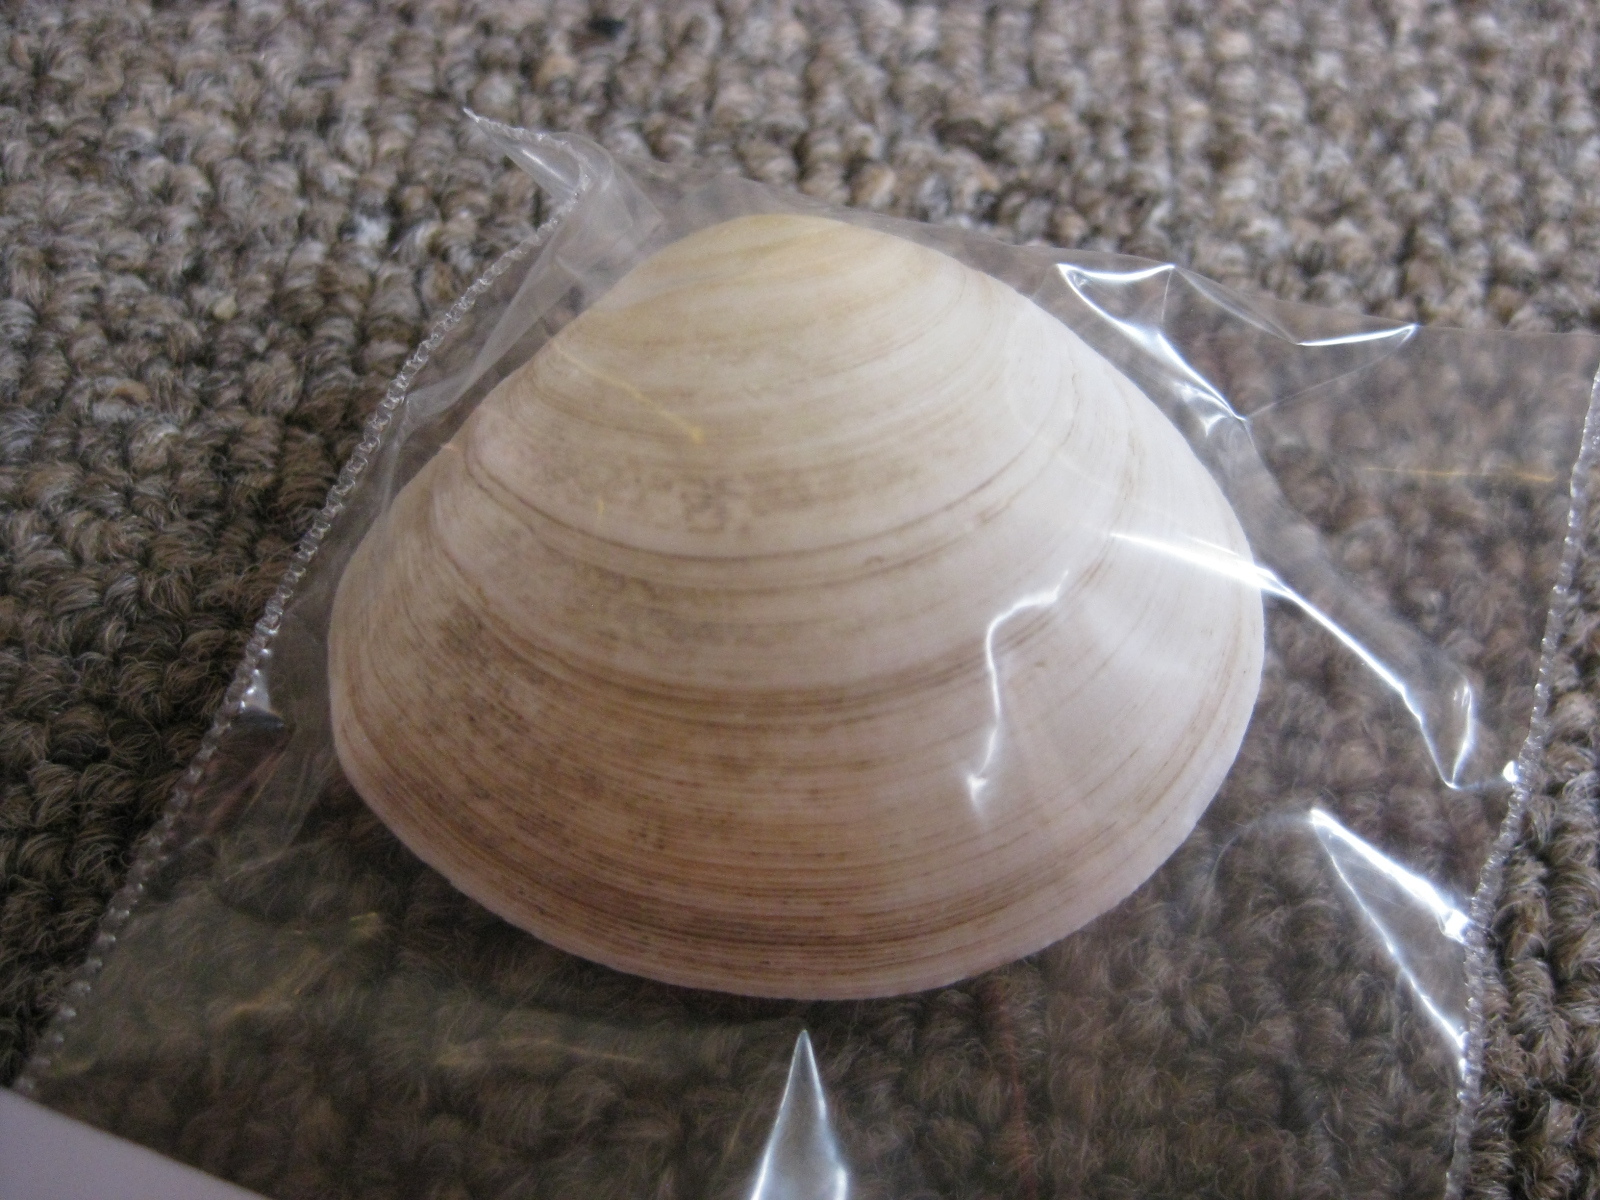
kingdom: Animalia
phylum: Mollusca
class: Bivalvia
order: Cardiida
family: Tellinidae
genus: Pseudarcopagia
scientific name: Pseudarcopagia disculus
